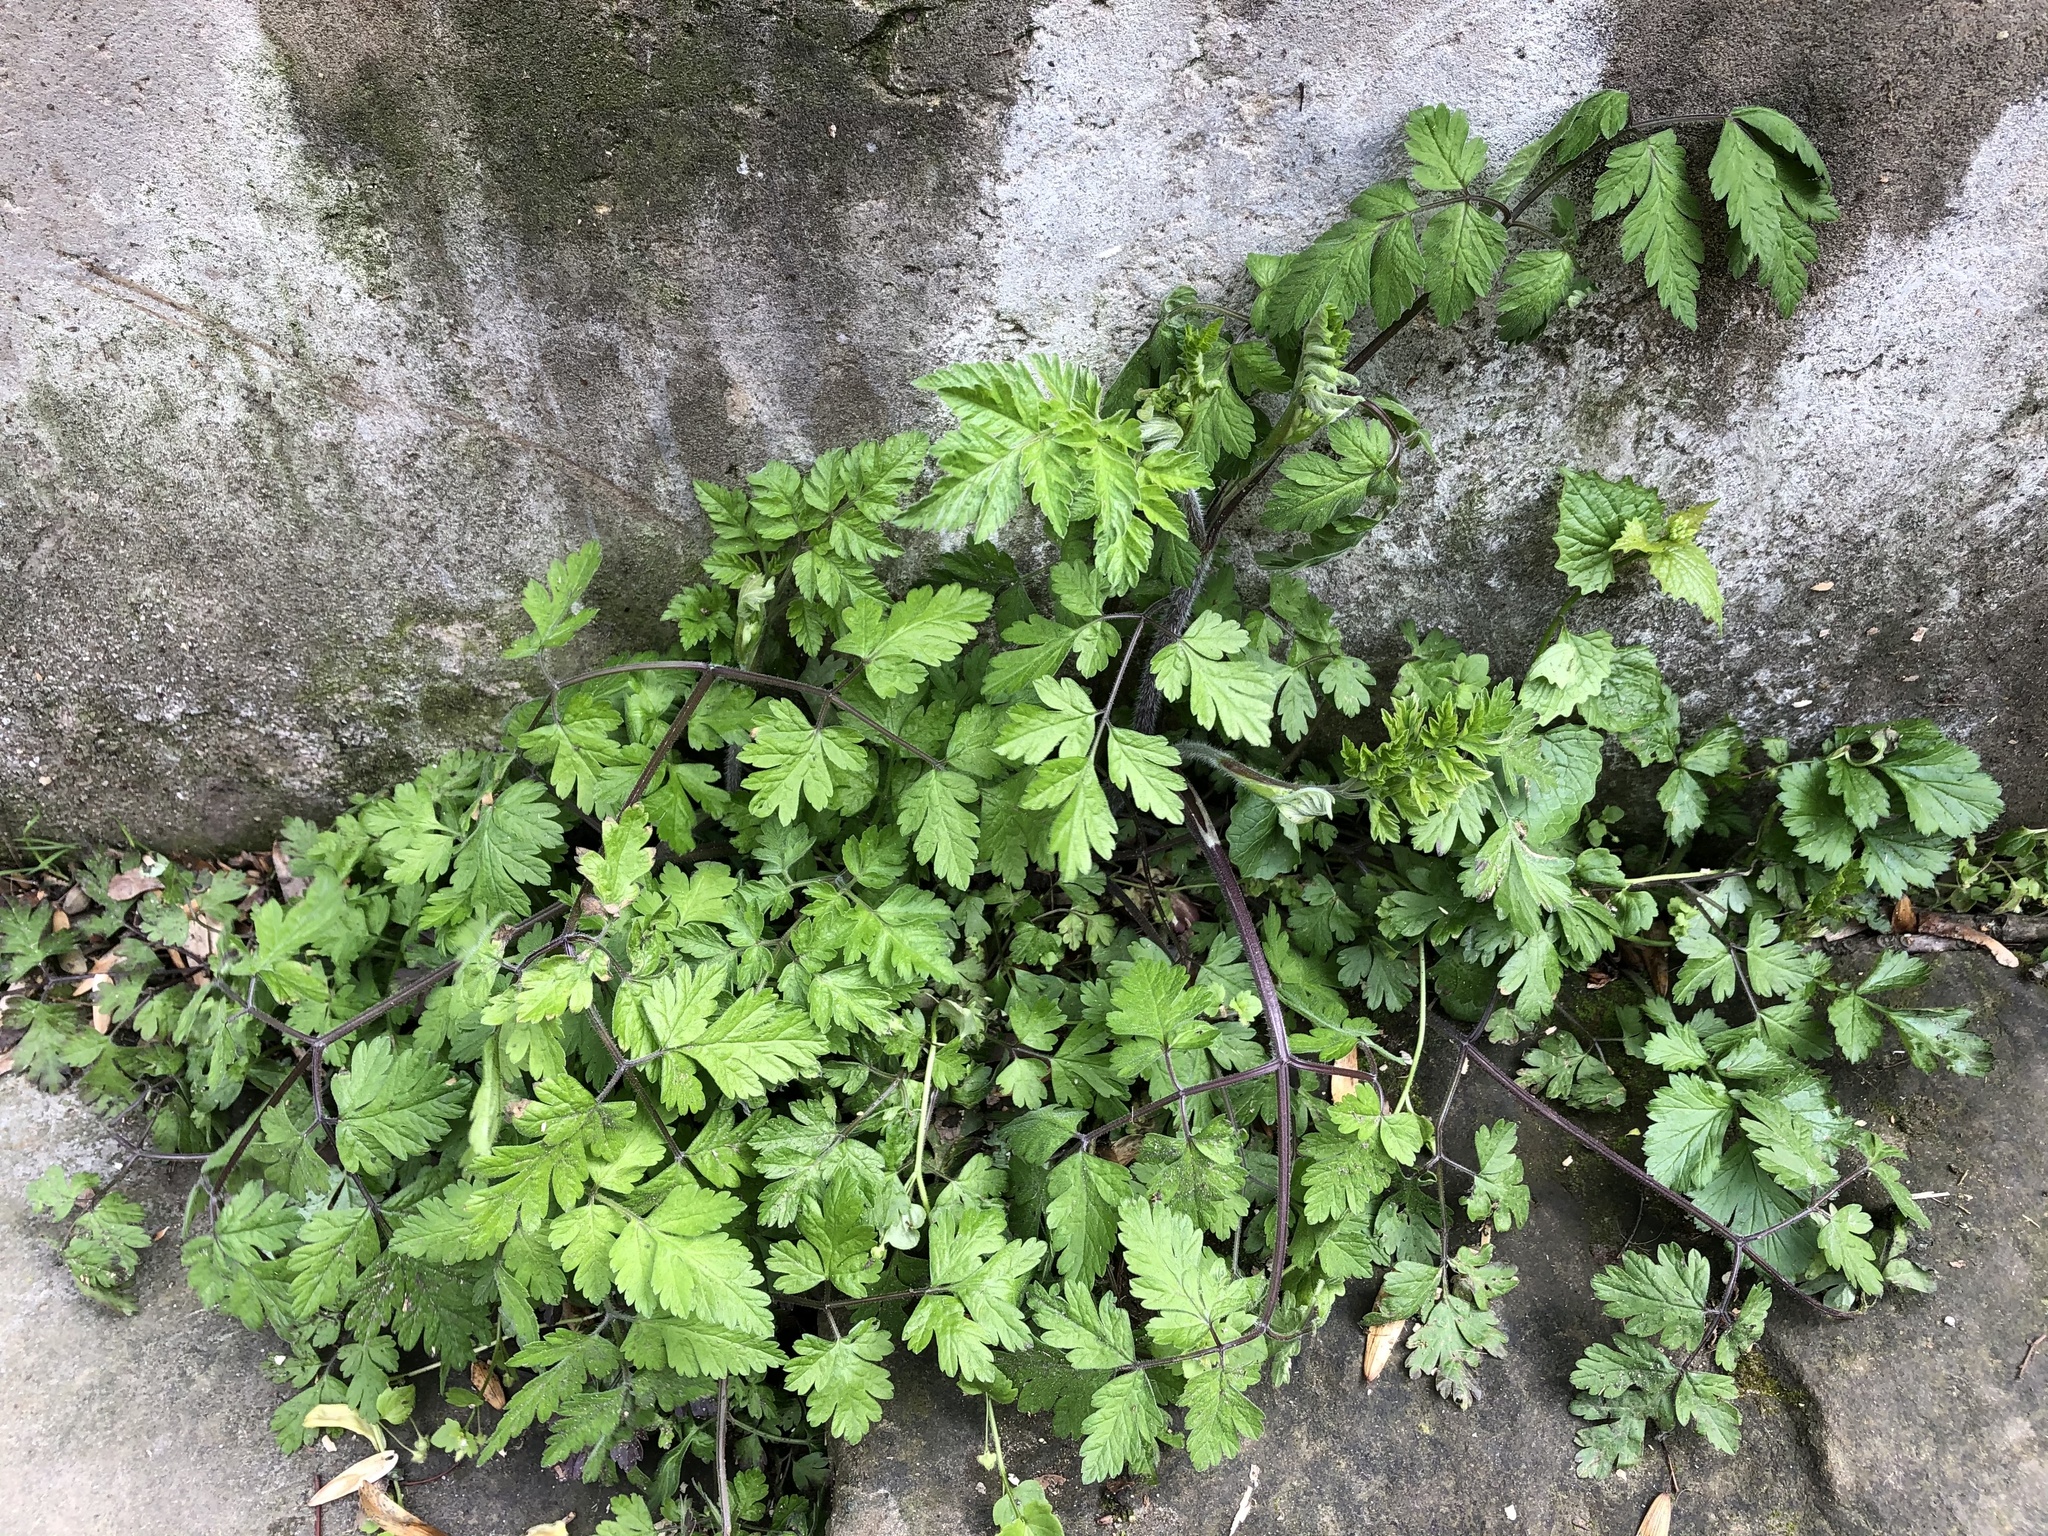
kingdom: Plantae
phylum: Tracheophyta
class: Magnoliopsida
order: Apiales
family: Apiaceae
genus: Chaerophyllum
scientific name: Chaerophyllum temulum
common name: Rough chervil
